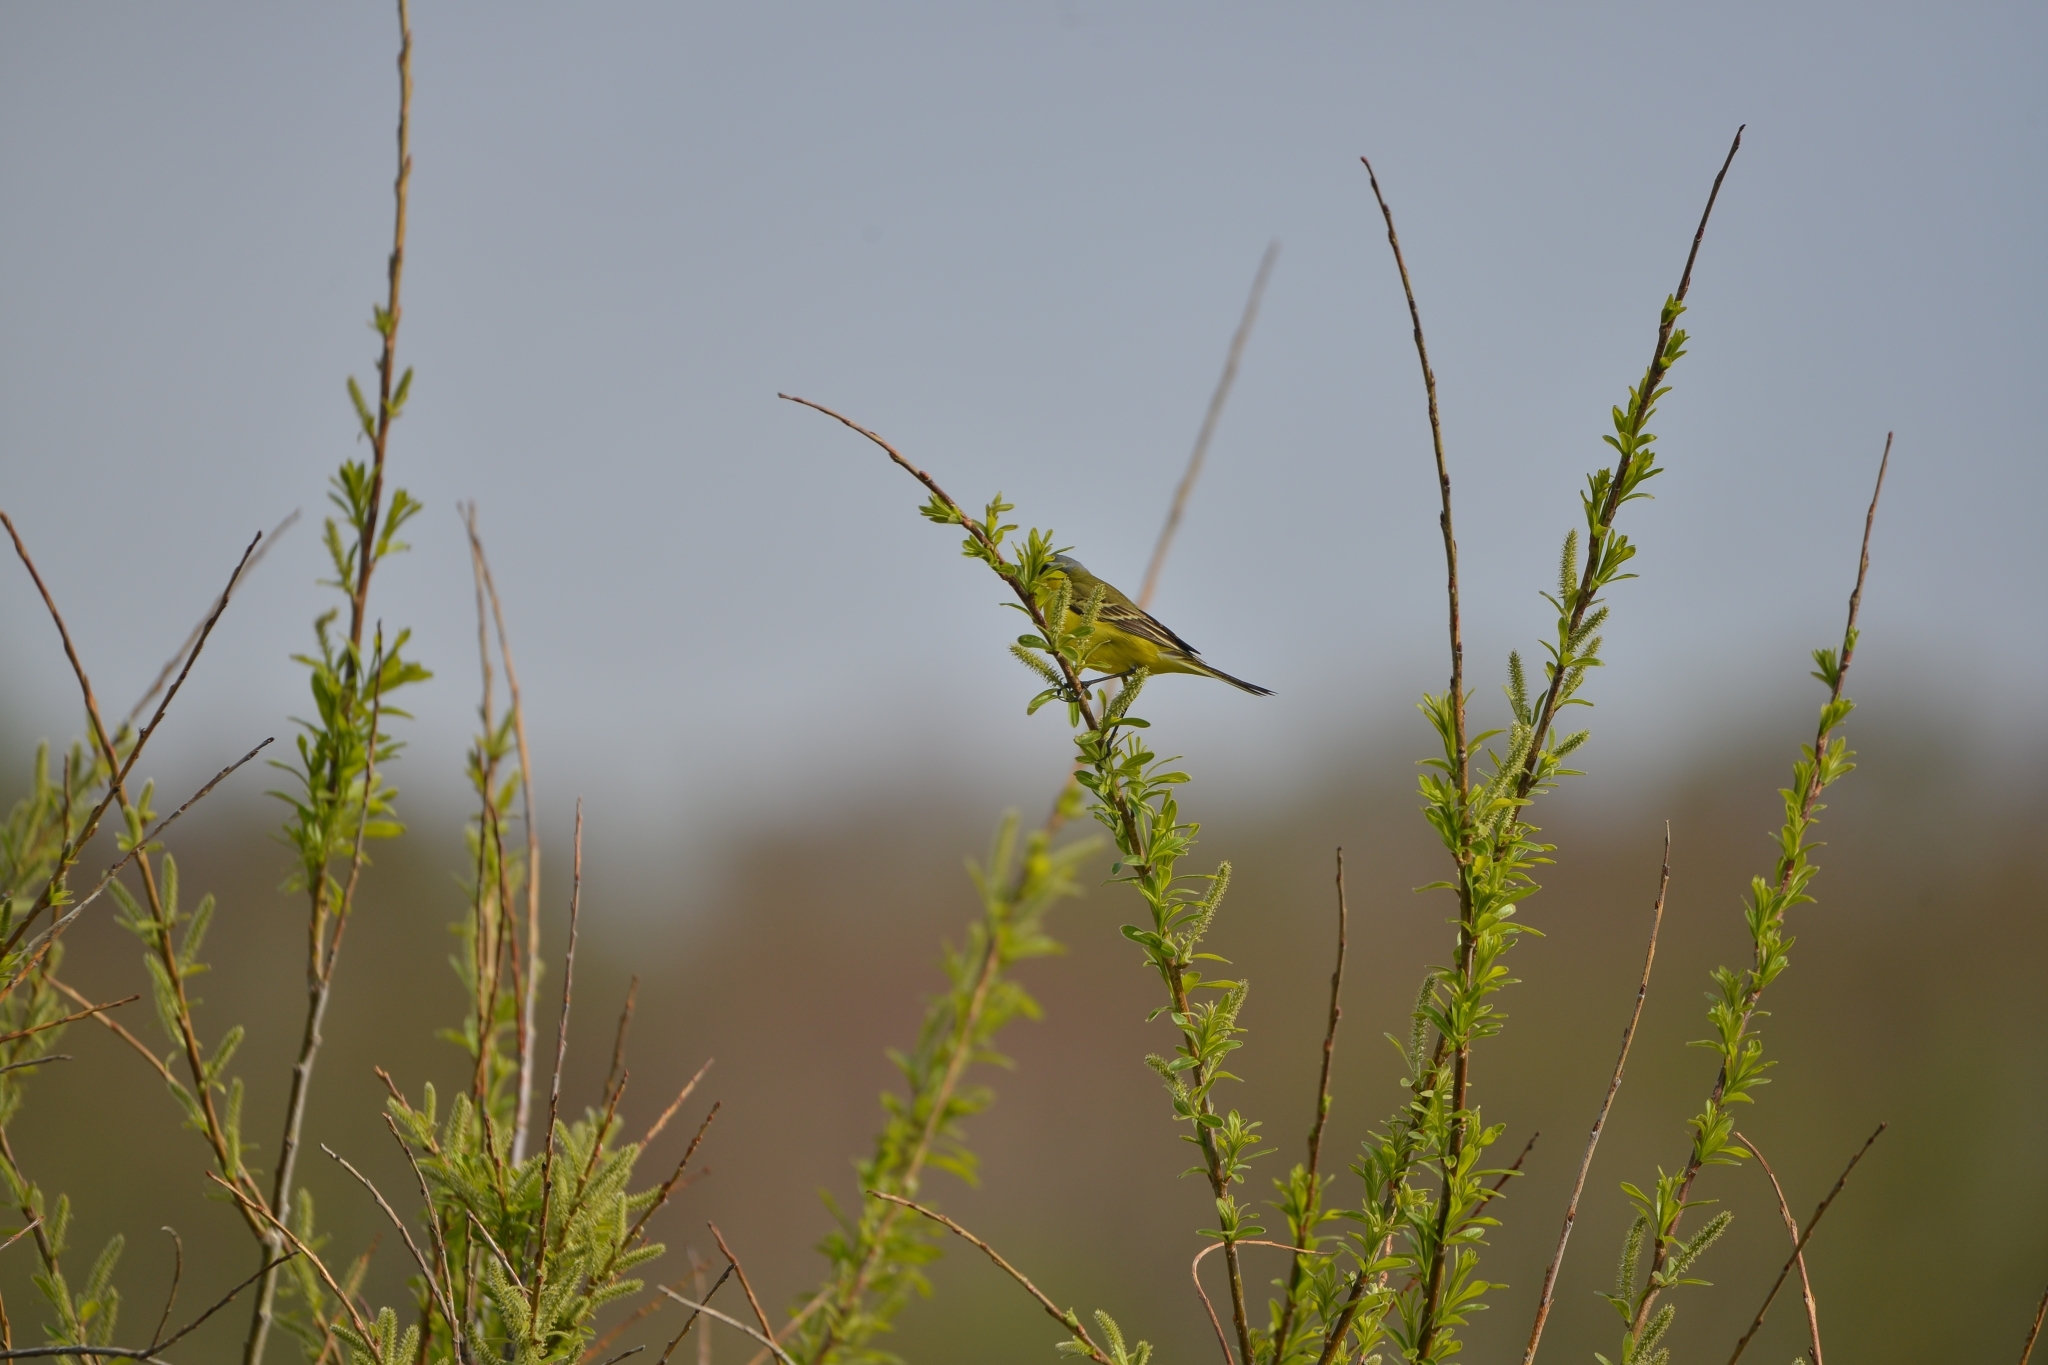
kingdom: Animalia
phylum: Chordata
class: Aves
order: Passeriformes
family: Motacillidae
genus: Motacilla
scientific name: Motacilla tschutschensis
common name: Eastern yellow wagtail
